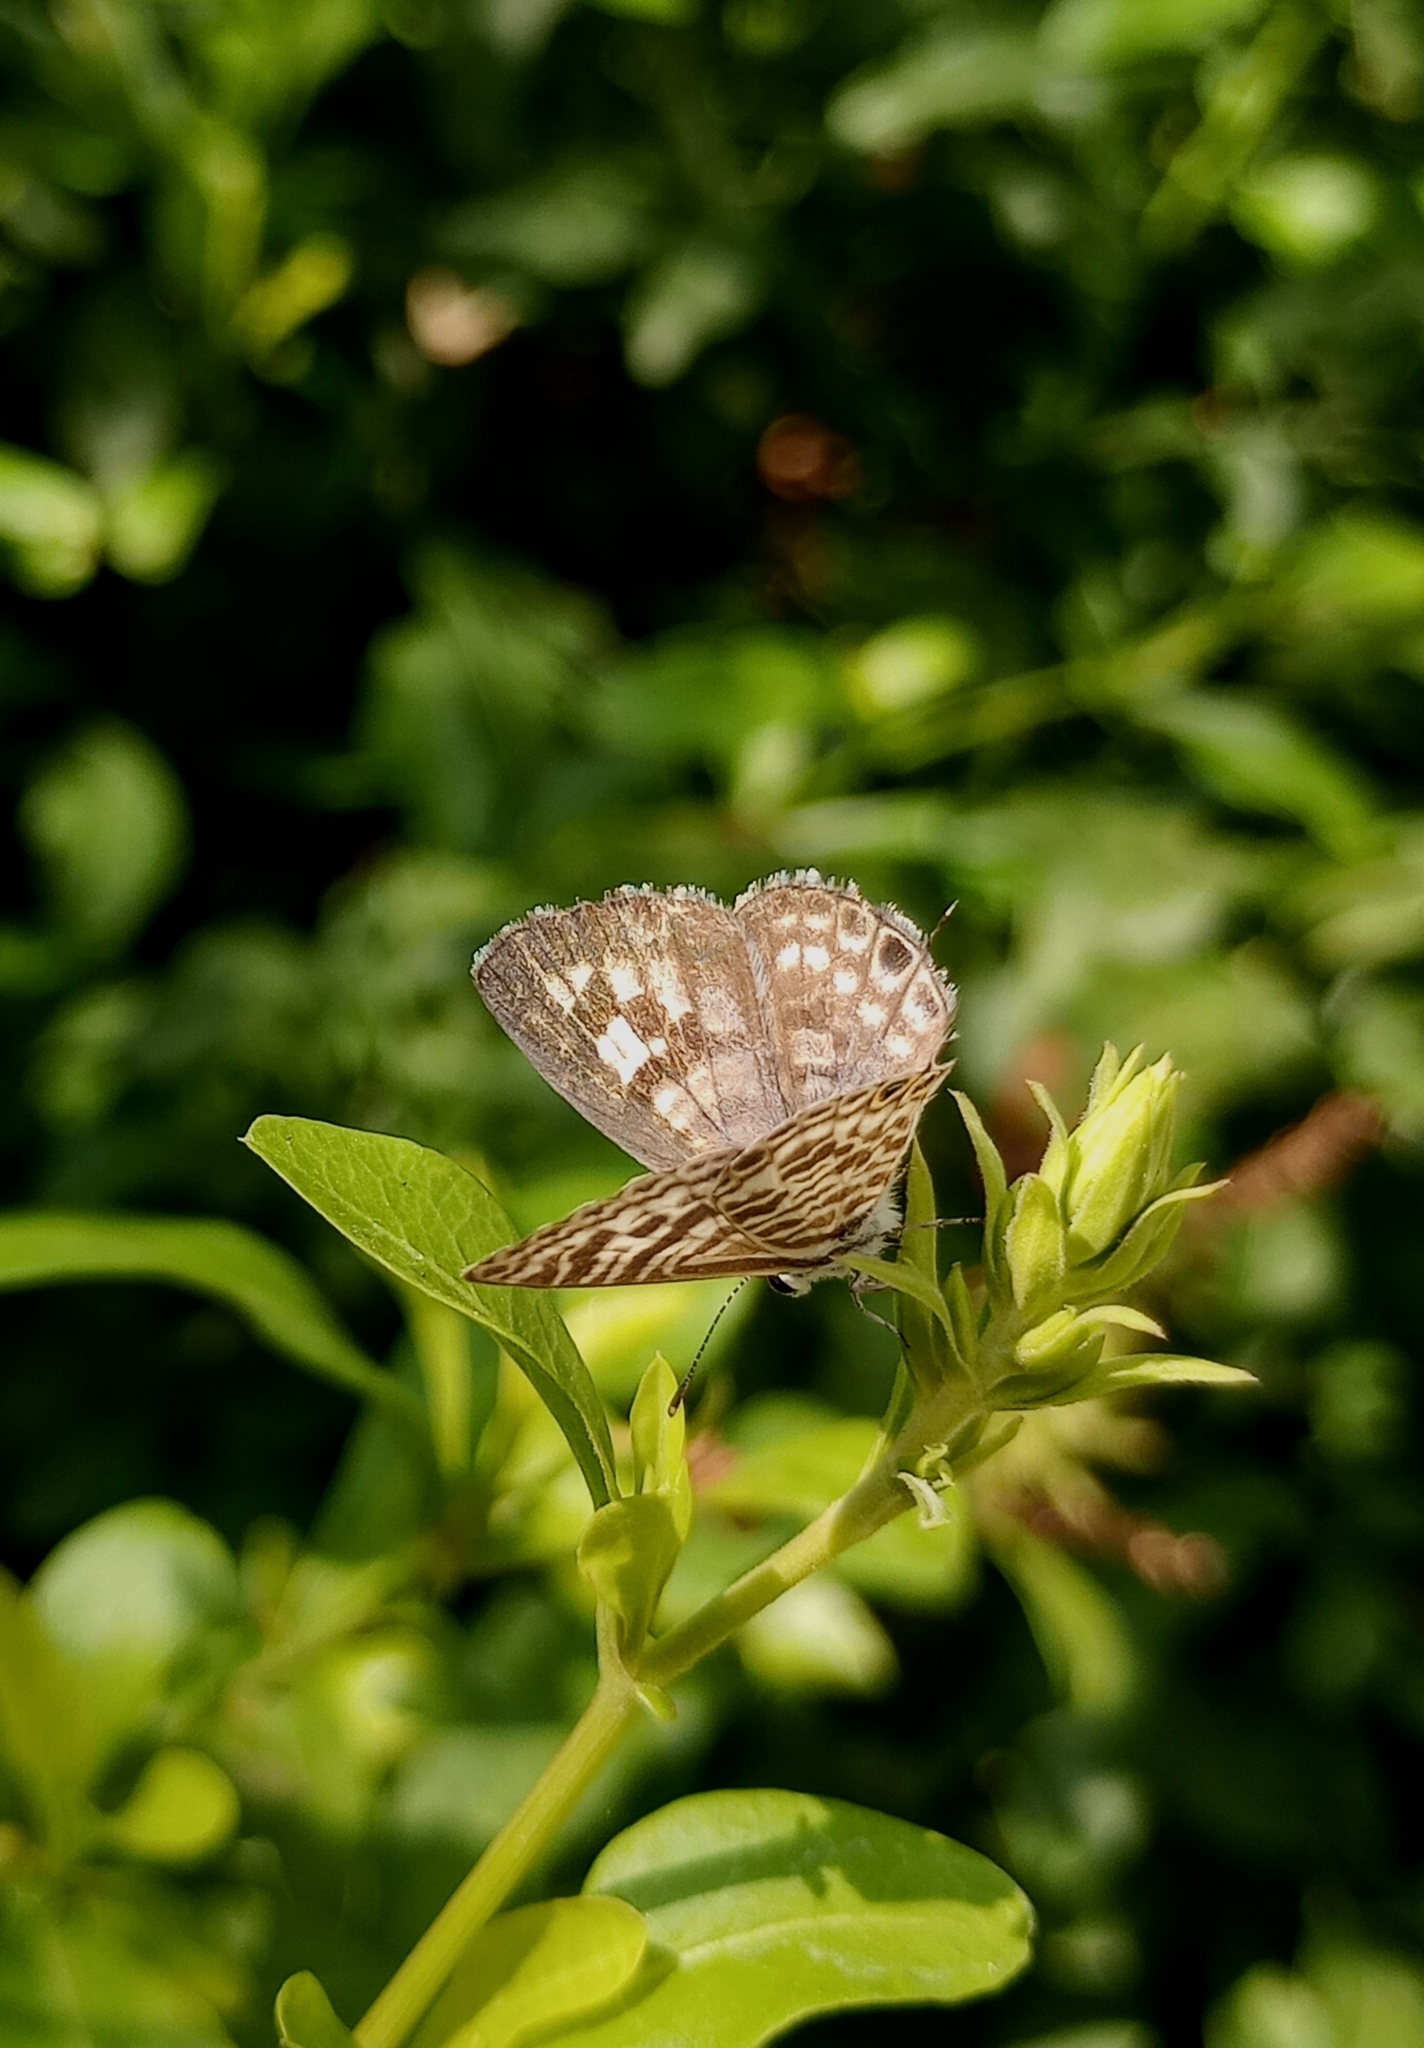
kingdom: Animalia
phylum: Arthropoda
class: Insecta
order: Lepidoptera
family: Lycaenidae
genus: Leptotes
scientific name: Leptotes plinius
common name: Zebra blue
